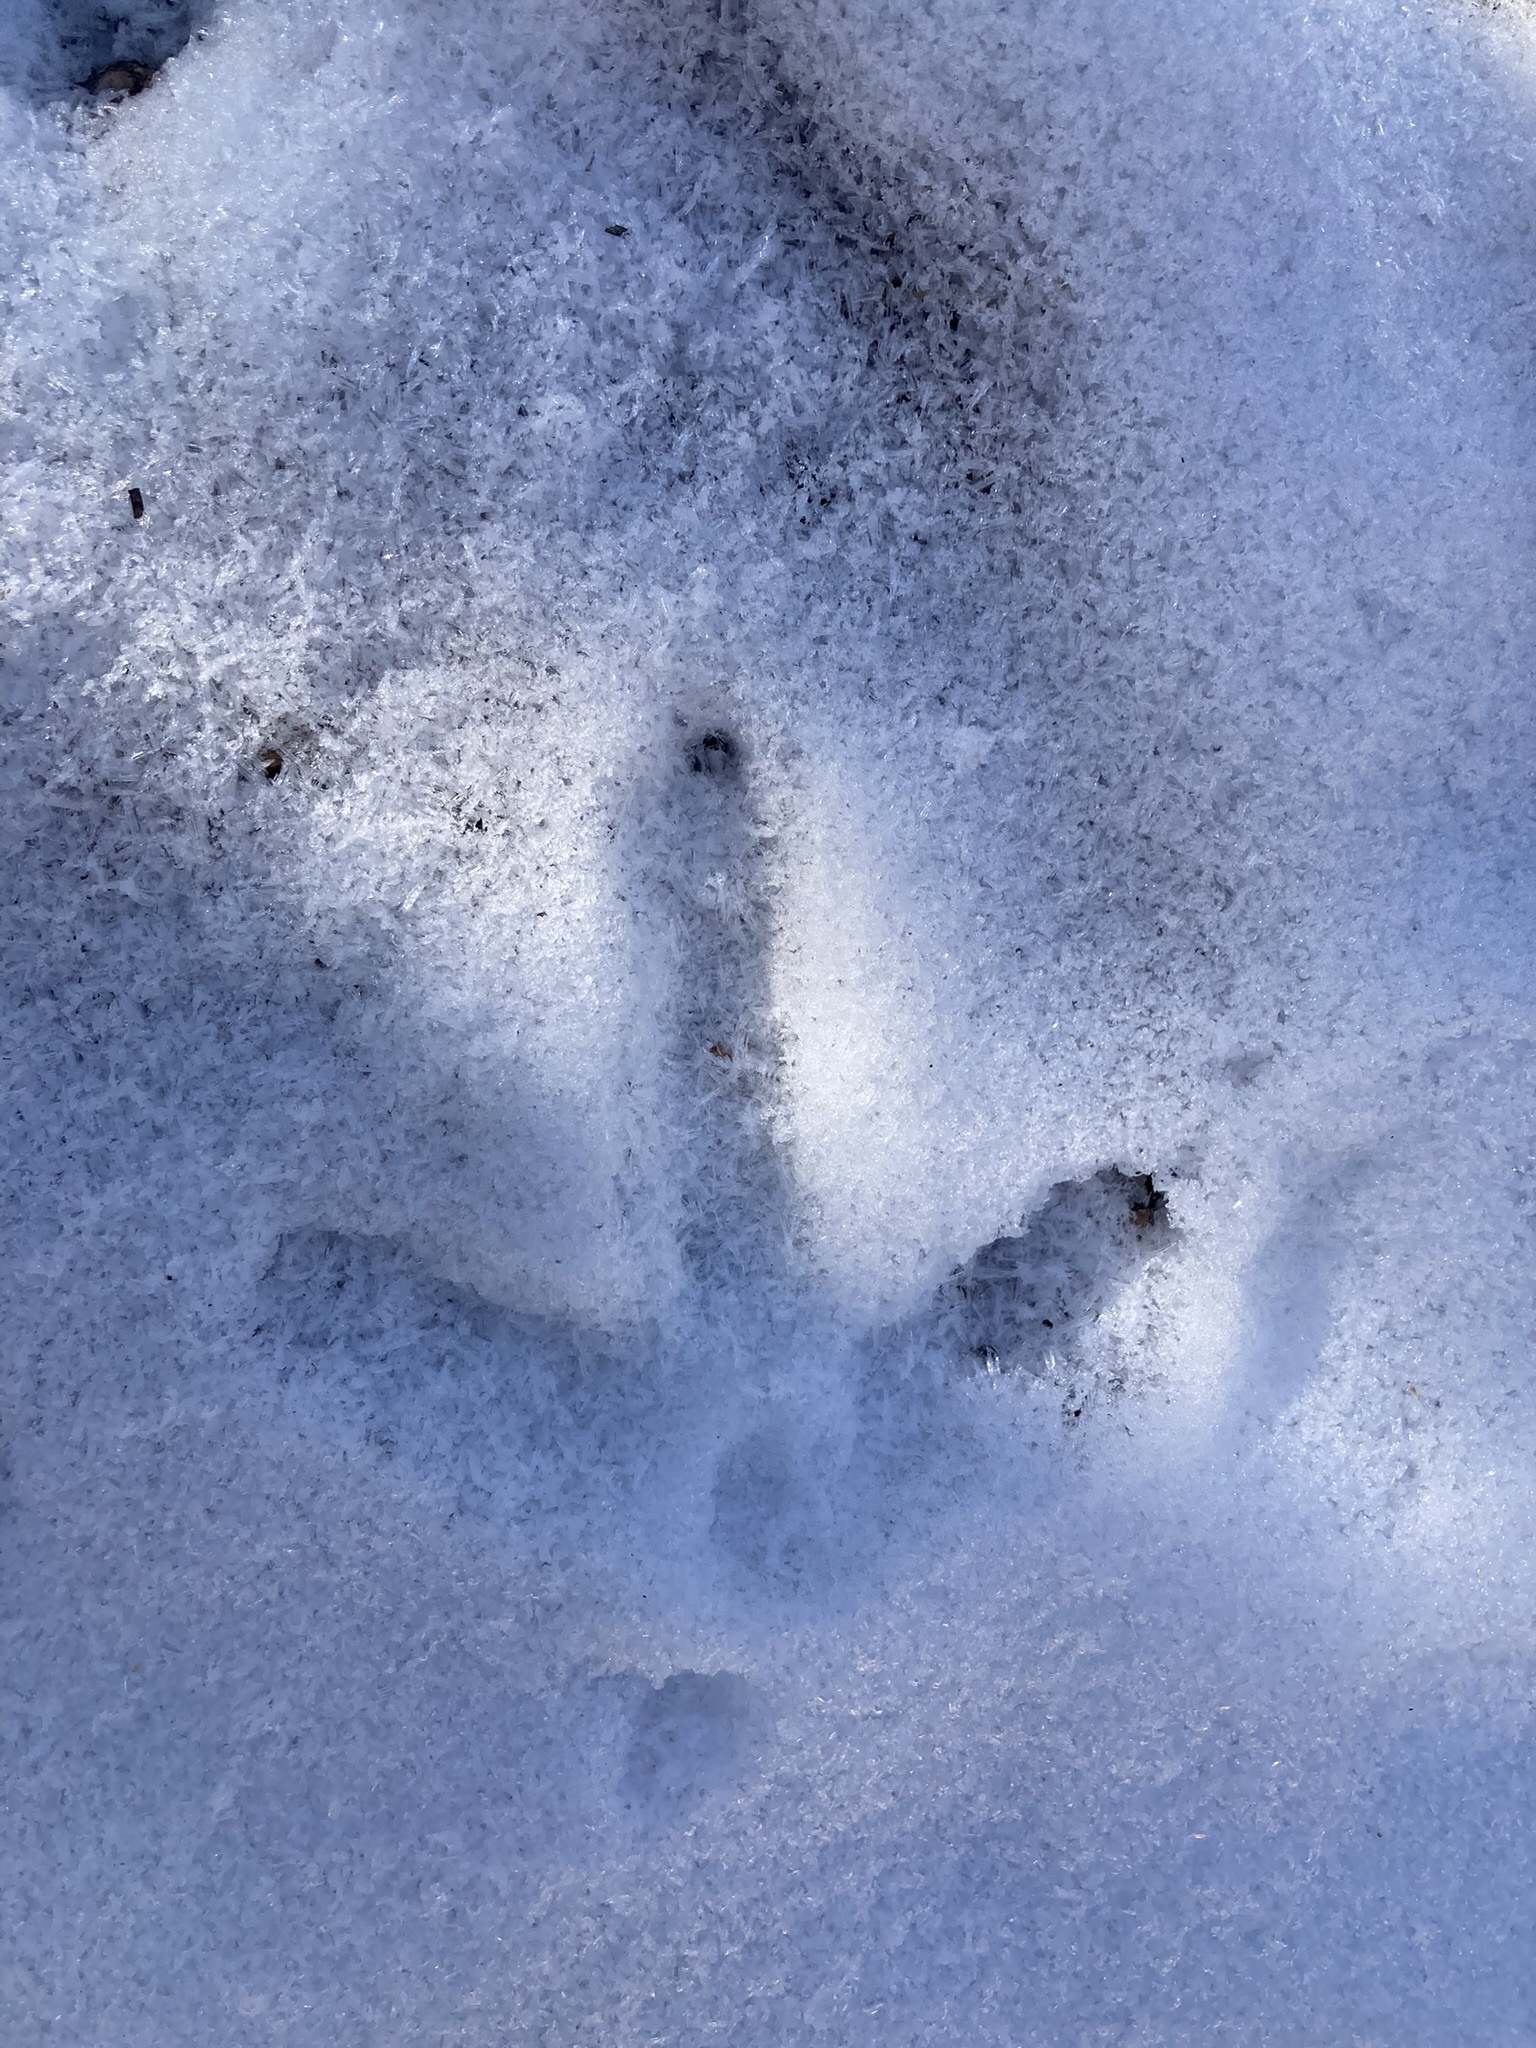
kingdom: Animalia
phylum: Chordata
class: Aves
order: Galliformes
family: Phasianidae
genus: Meleagris
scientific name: Meleagris gallopavo
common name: Wild turkey
